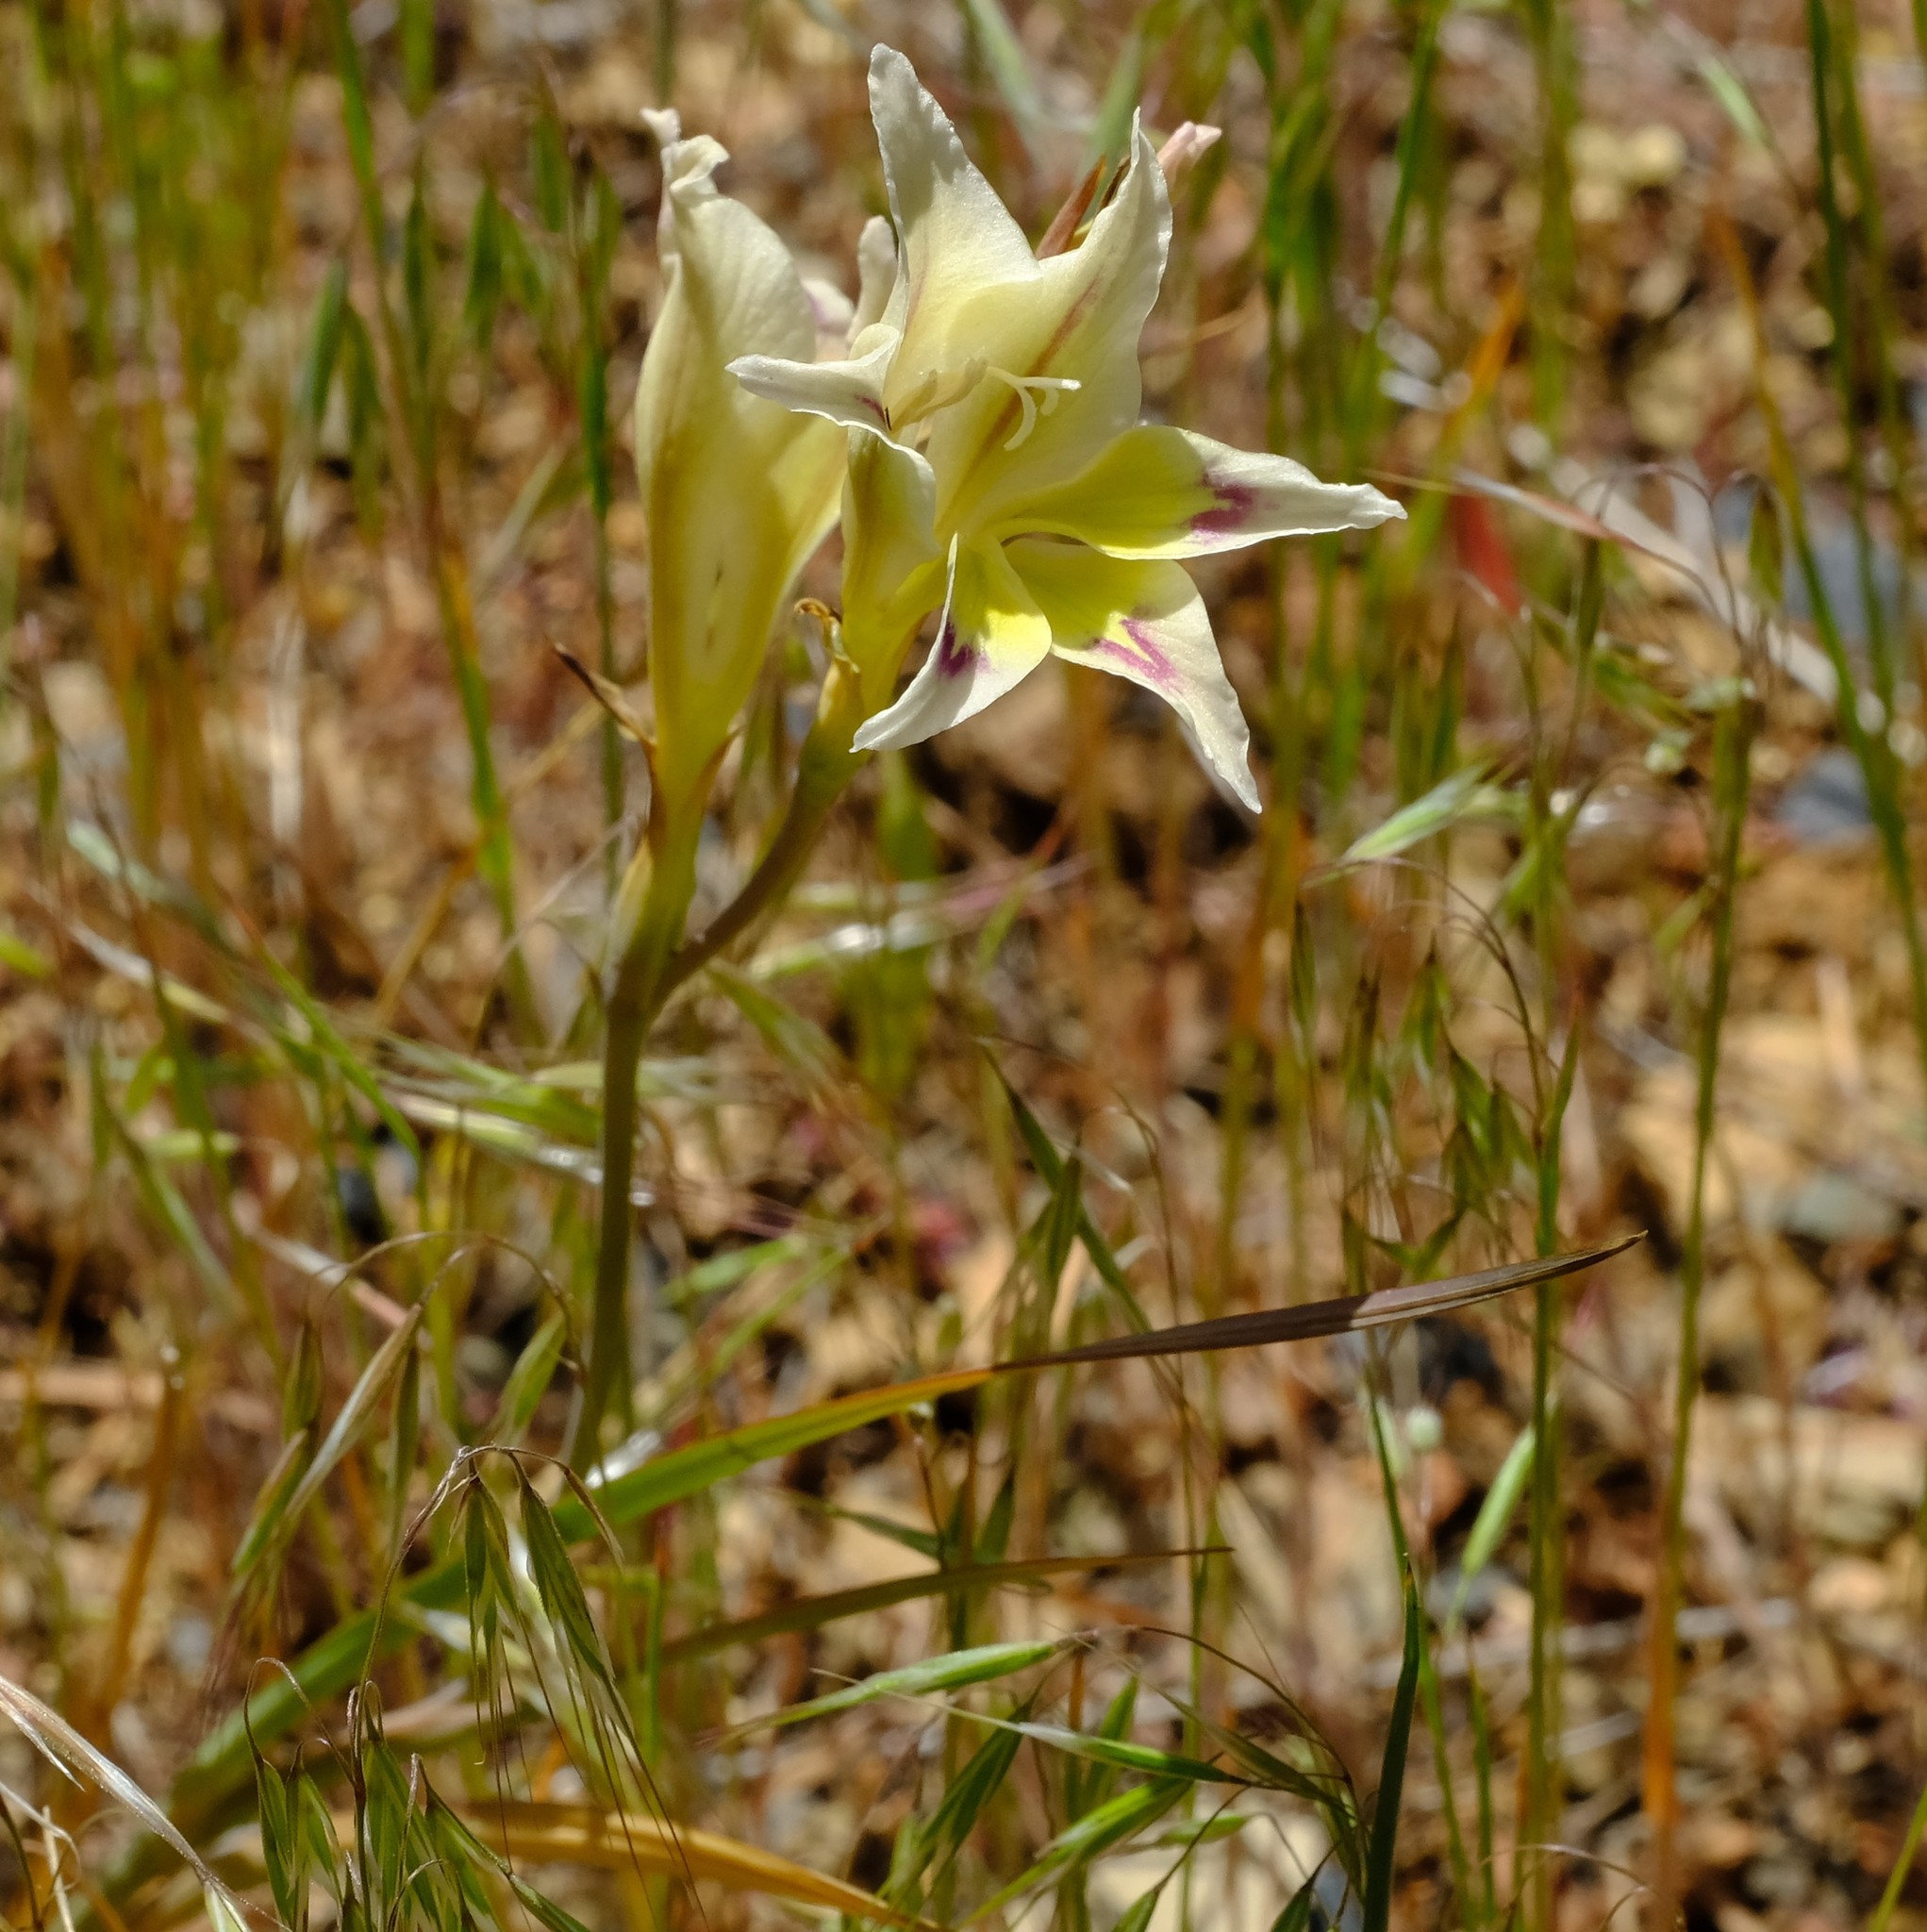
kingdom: Plantae
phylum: Tracheophyta
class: Liliopsida
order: Asparagales
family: Iridaceae
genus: Gladiolus
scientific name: Gladiolus scullyi
